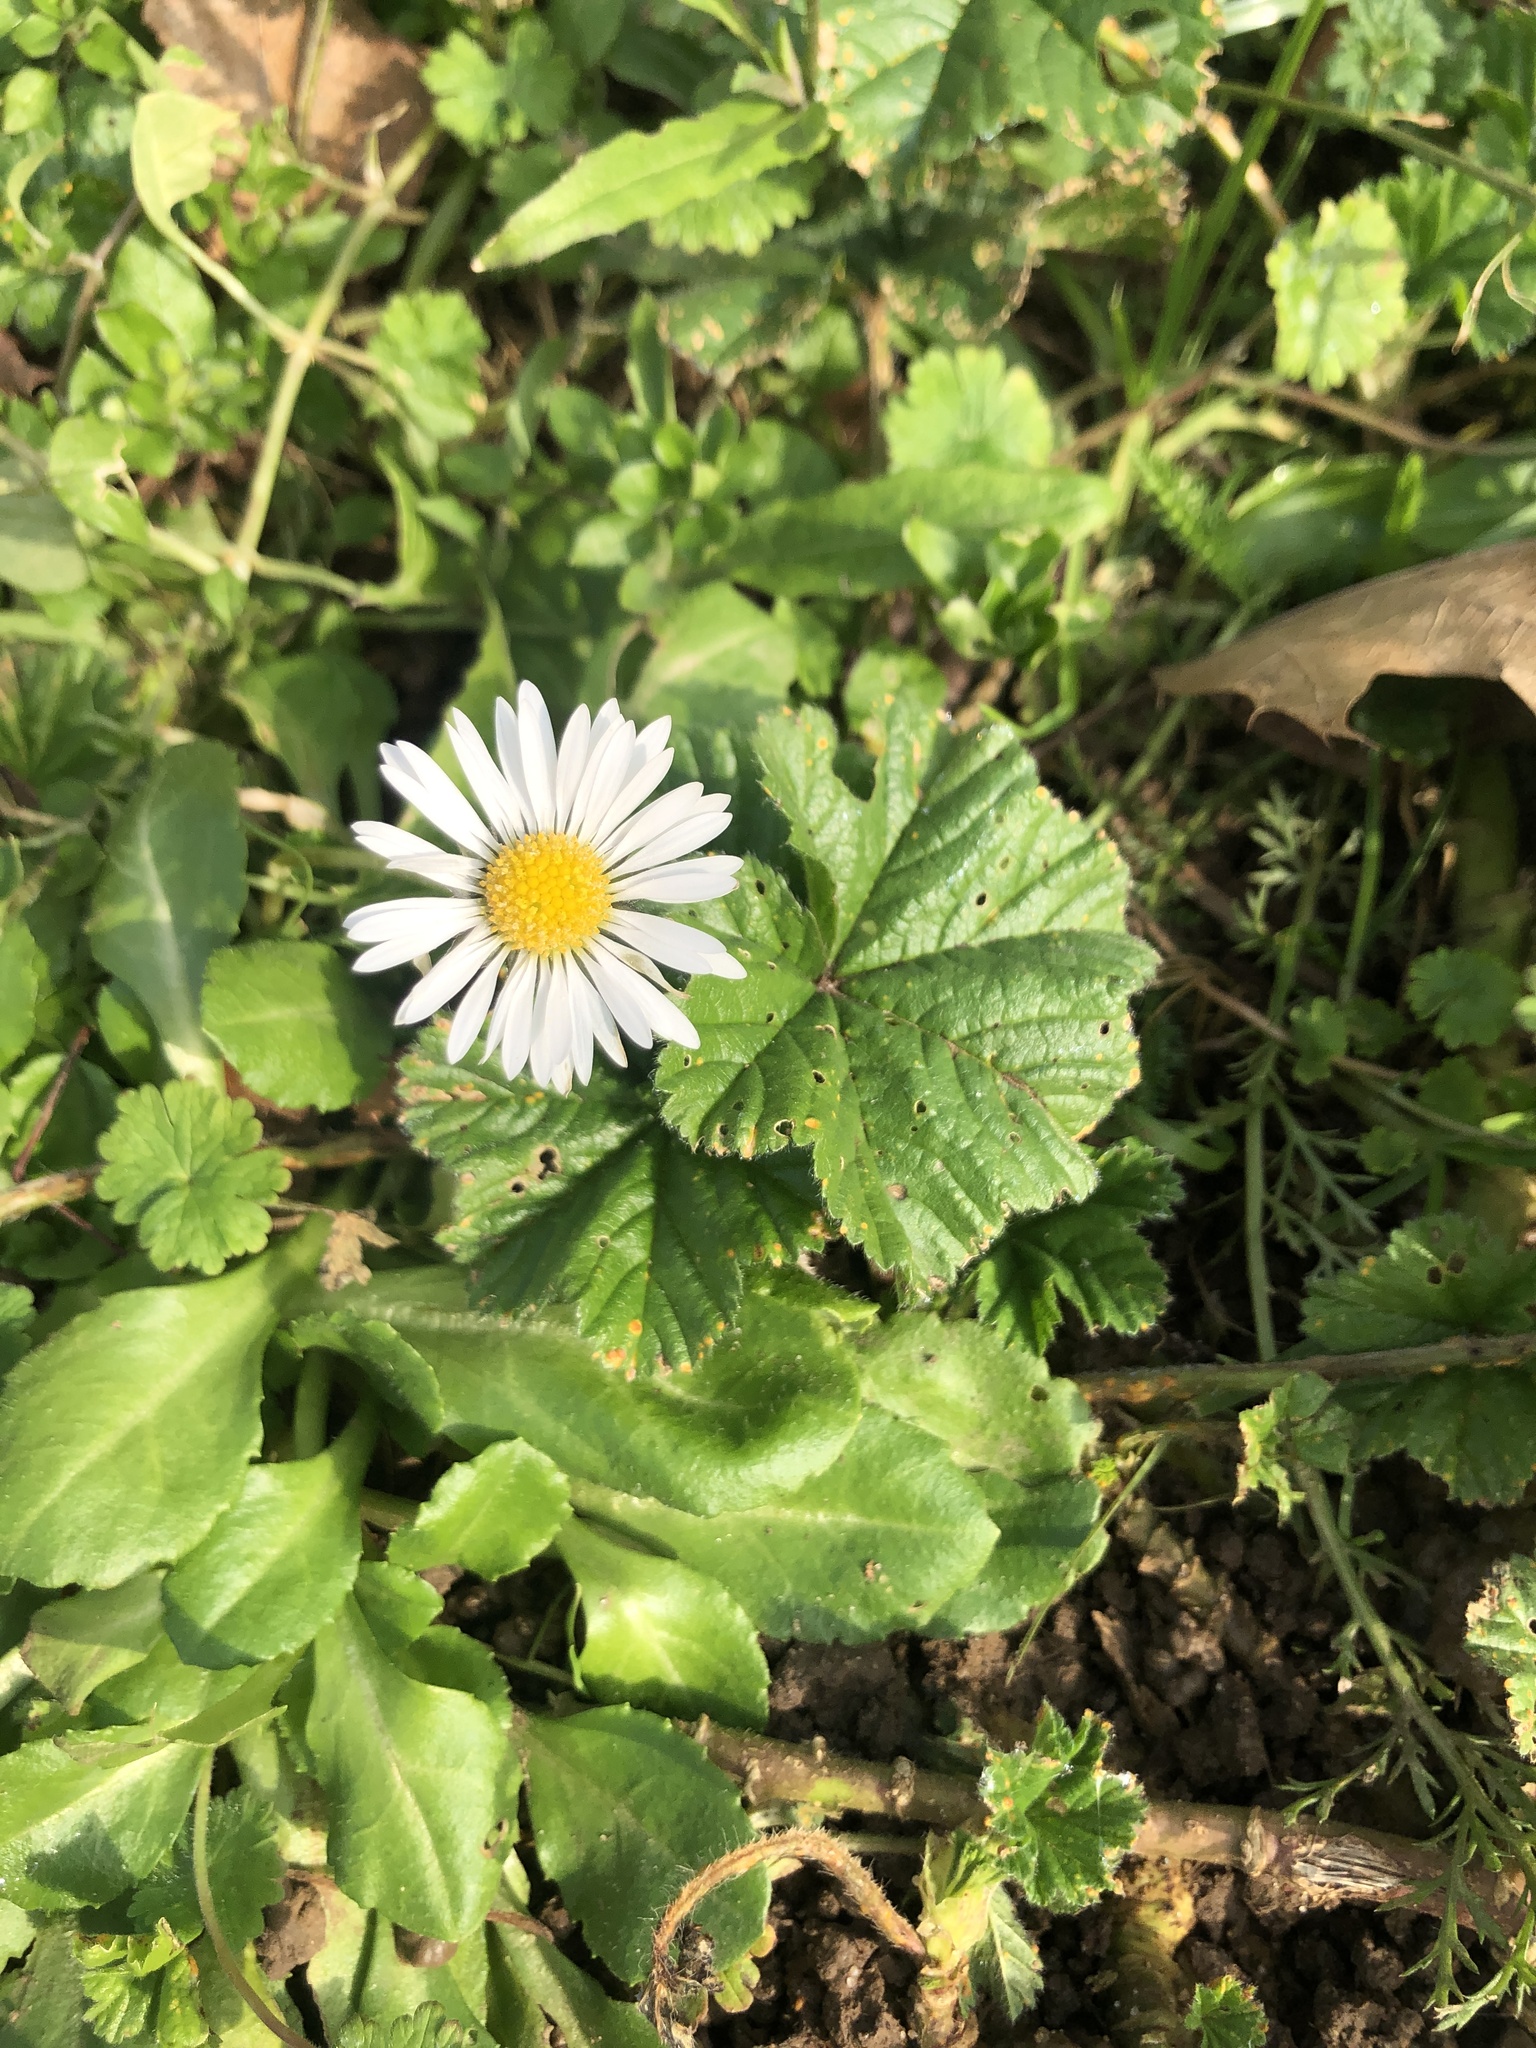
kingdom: Plantae
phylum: Tracheophyta
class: Magnoliopsida
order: Asterales
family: Asteraceae
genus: Bellis
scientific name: Bellis perennis
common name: Lawndaisy
